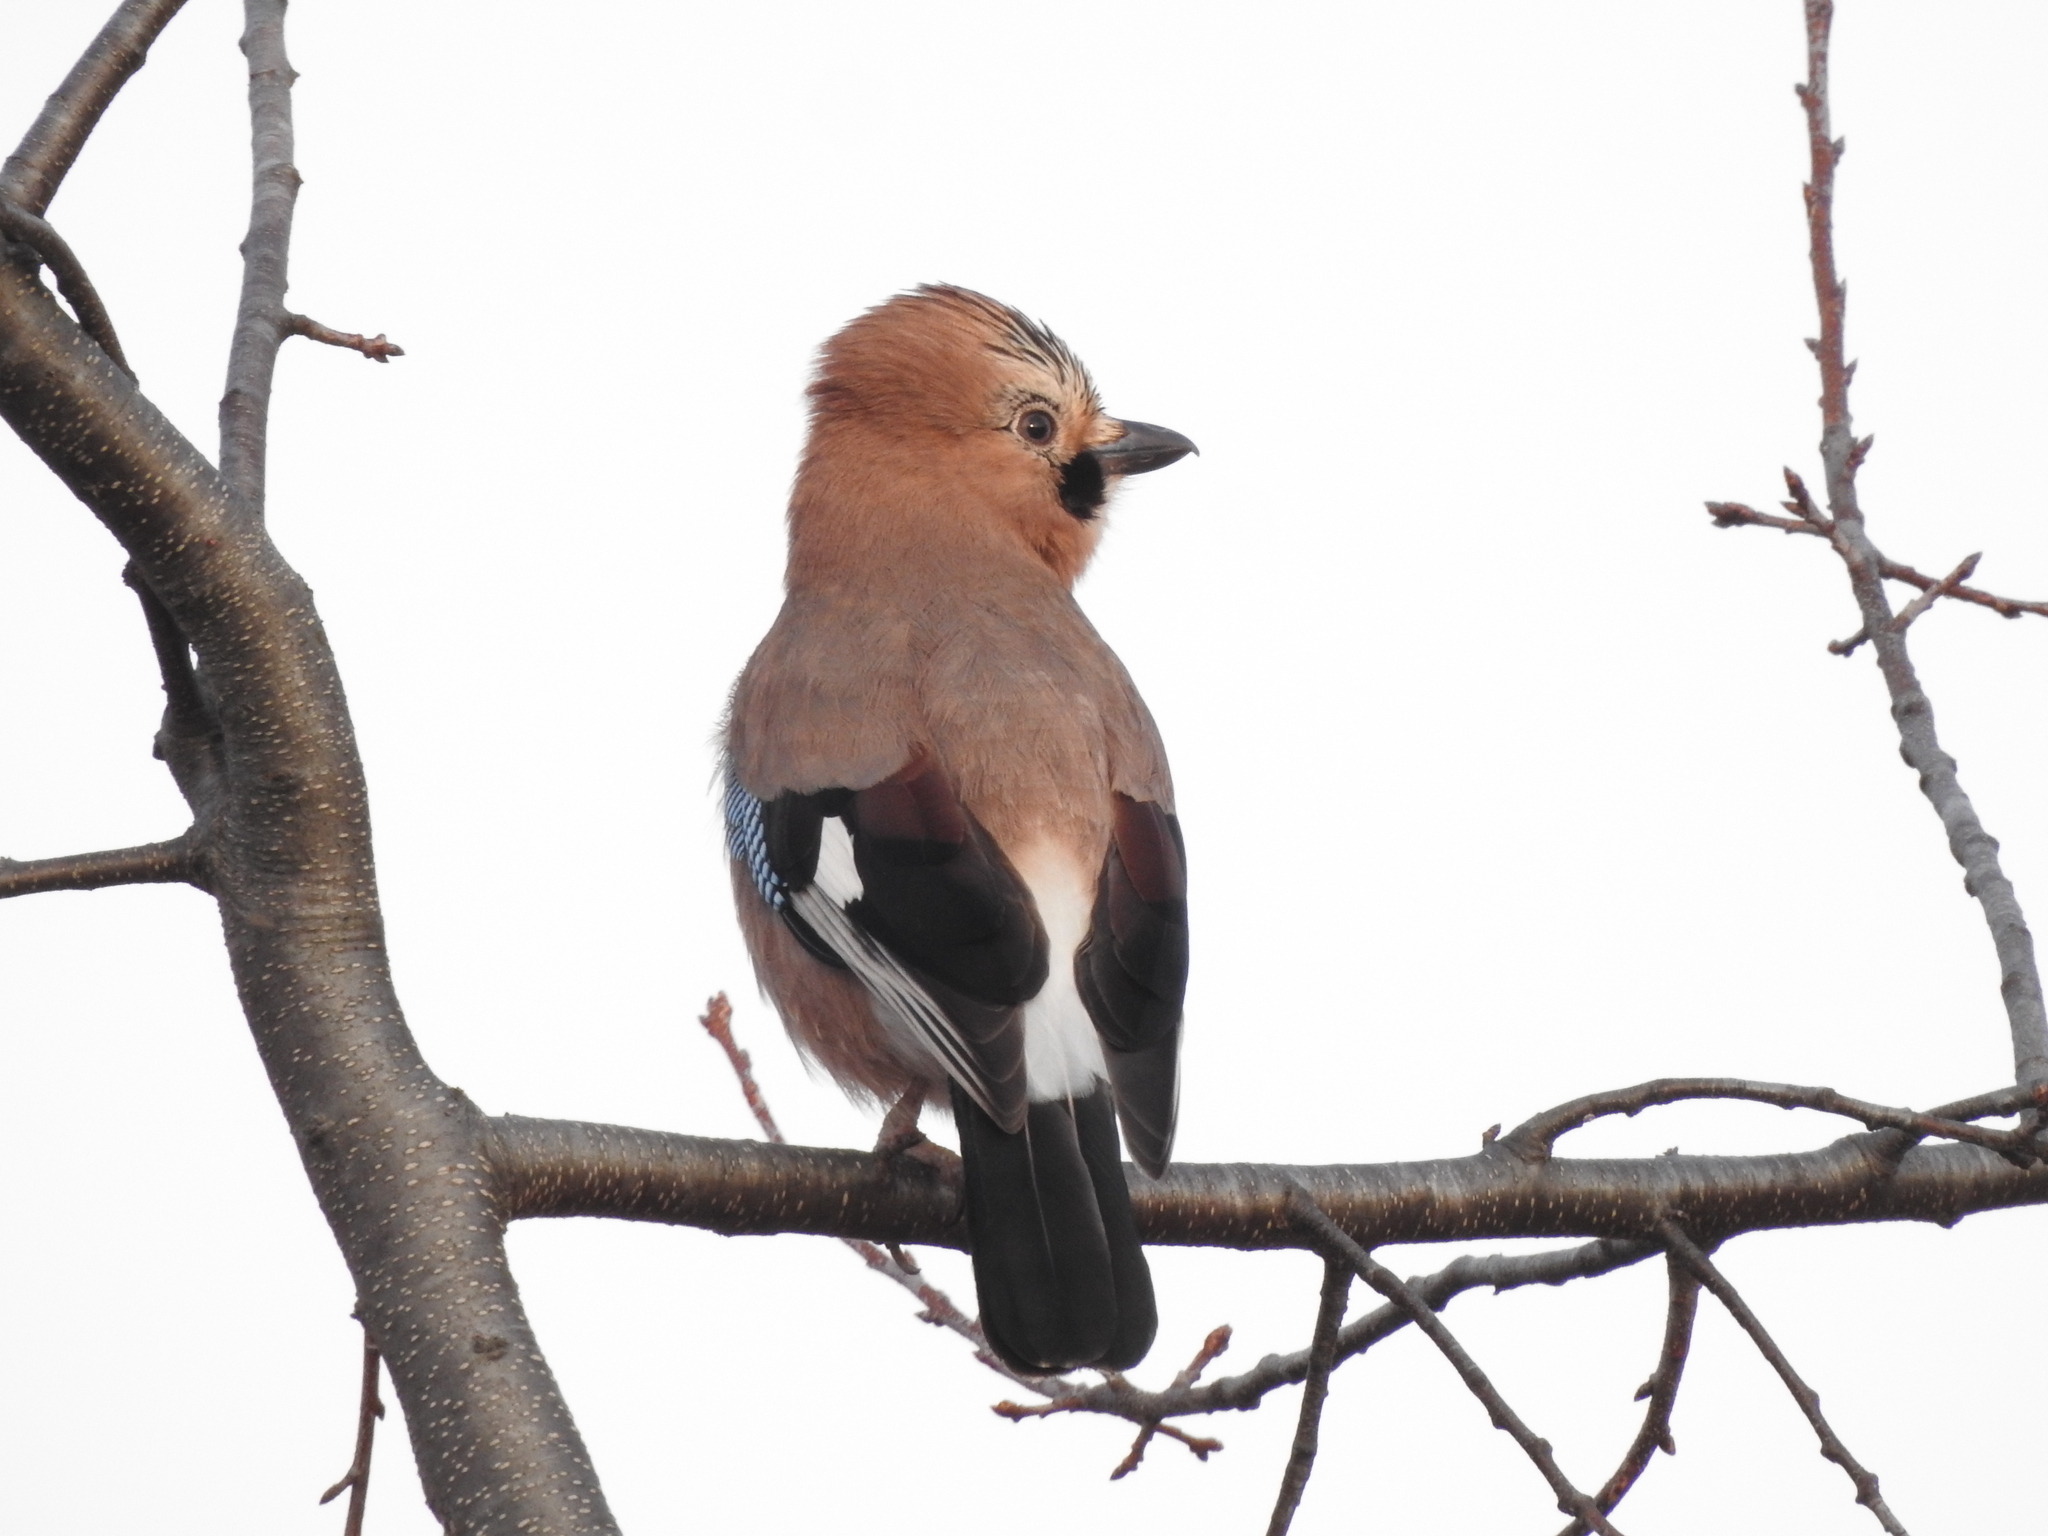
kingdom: Animalia
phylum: Chordata
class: Aves
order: Passeriformes
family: Corvidae
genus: Garrulus
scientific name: Garrulus glandarius
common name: Eurasian jay
